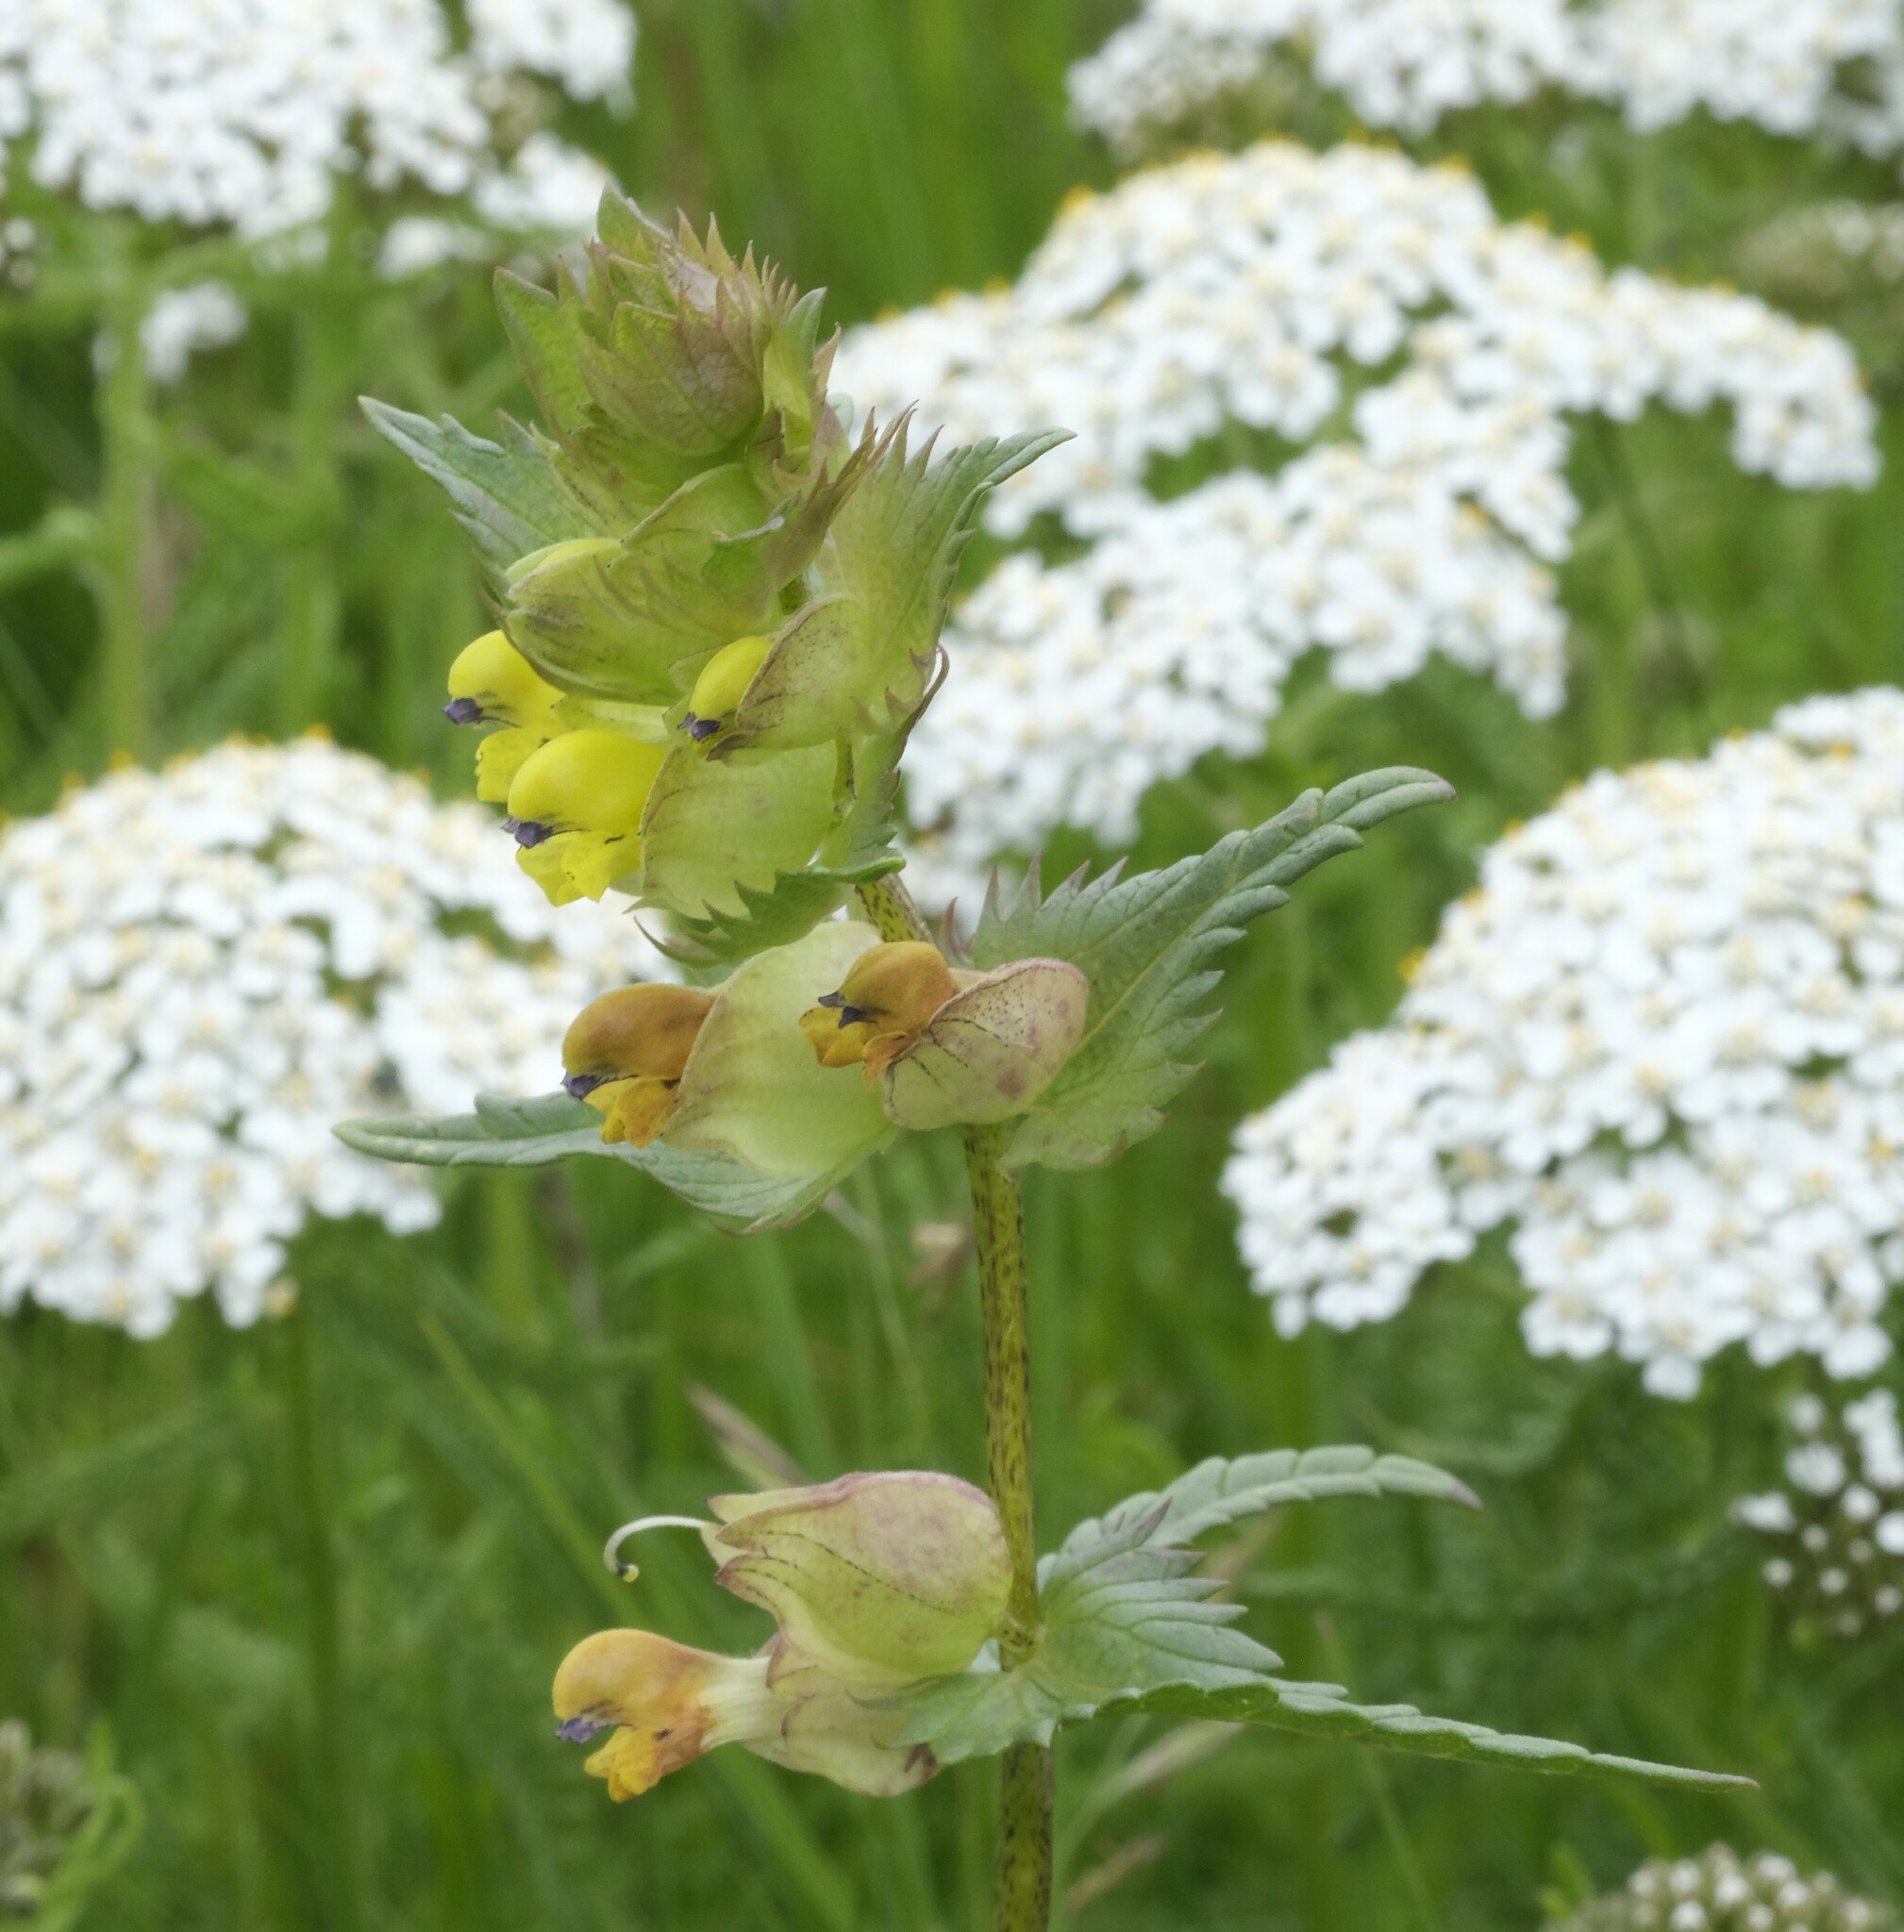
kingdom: Plantae
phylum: Tracheophyta
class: Magnoliopsida
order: Lamiales
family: Orobanchaceae
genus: Rhinanthus
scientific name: Rhinanthus minor
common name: Yellow-rattle
